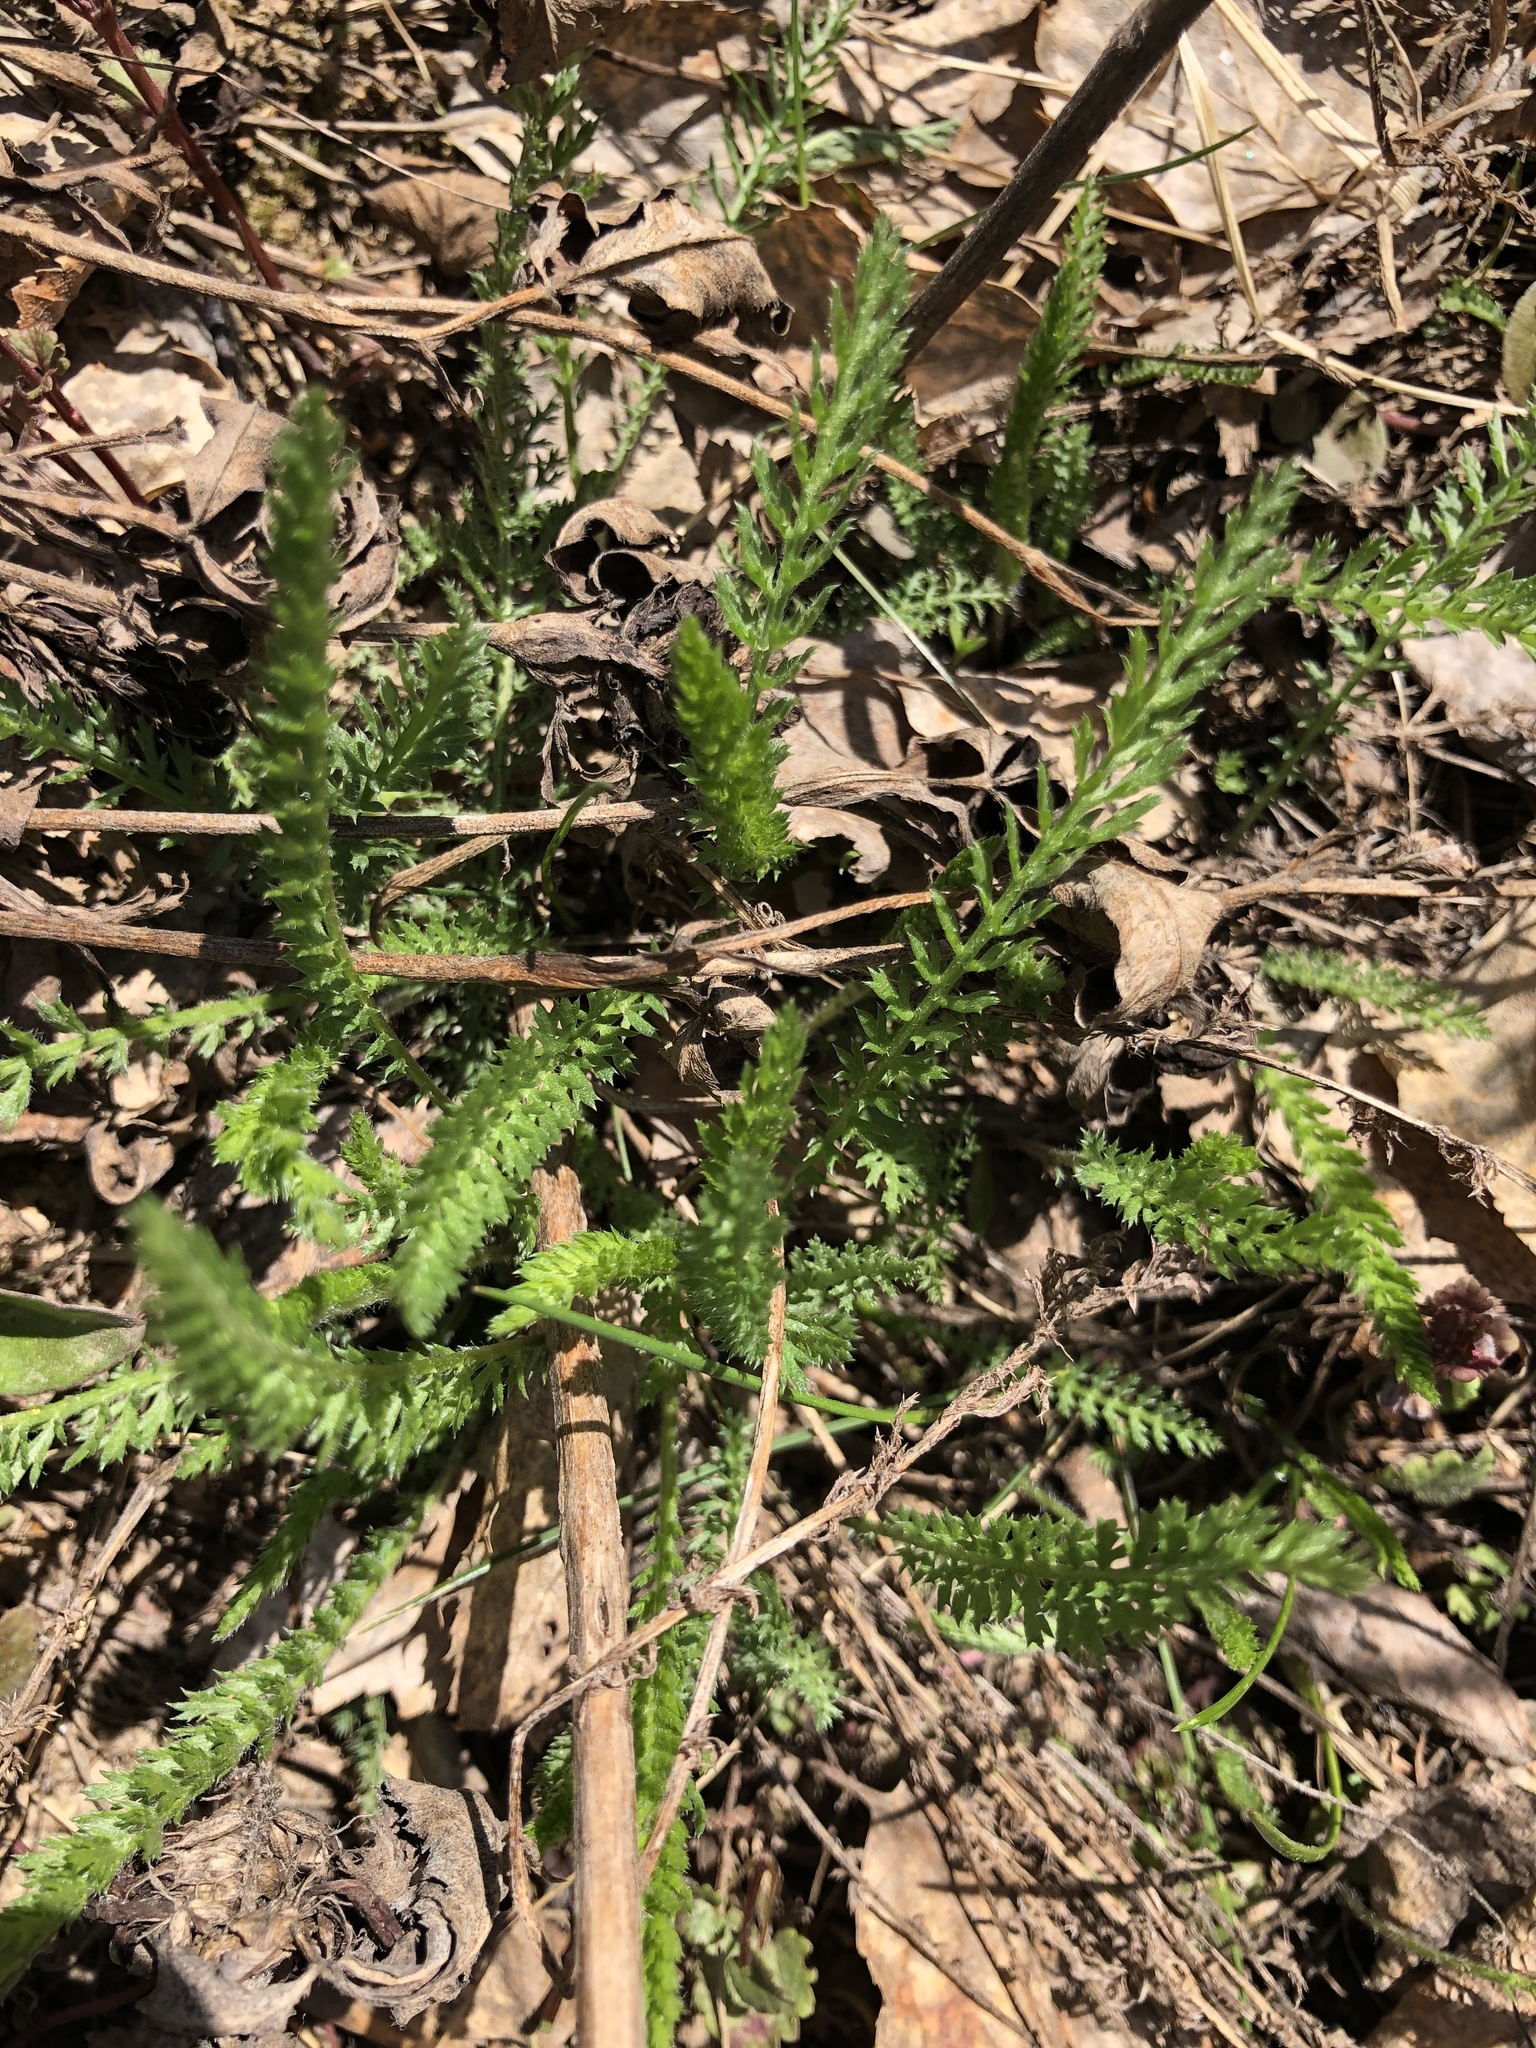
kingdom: Plantae
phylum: Tracheophyta
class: Magnoliopsida
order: Asterales
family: Asteraceae
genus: Achillea
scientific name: Achillea millefolium
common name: Yarrow
